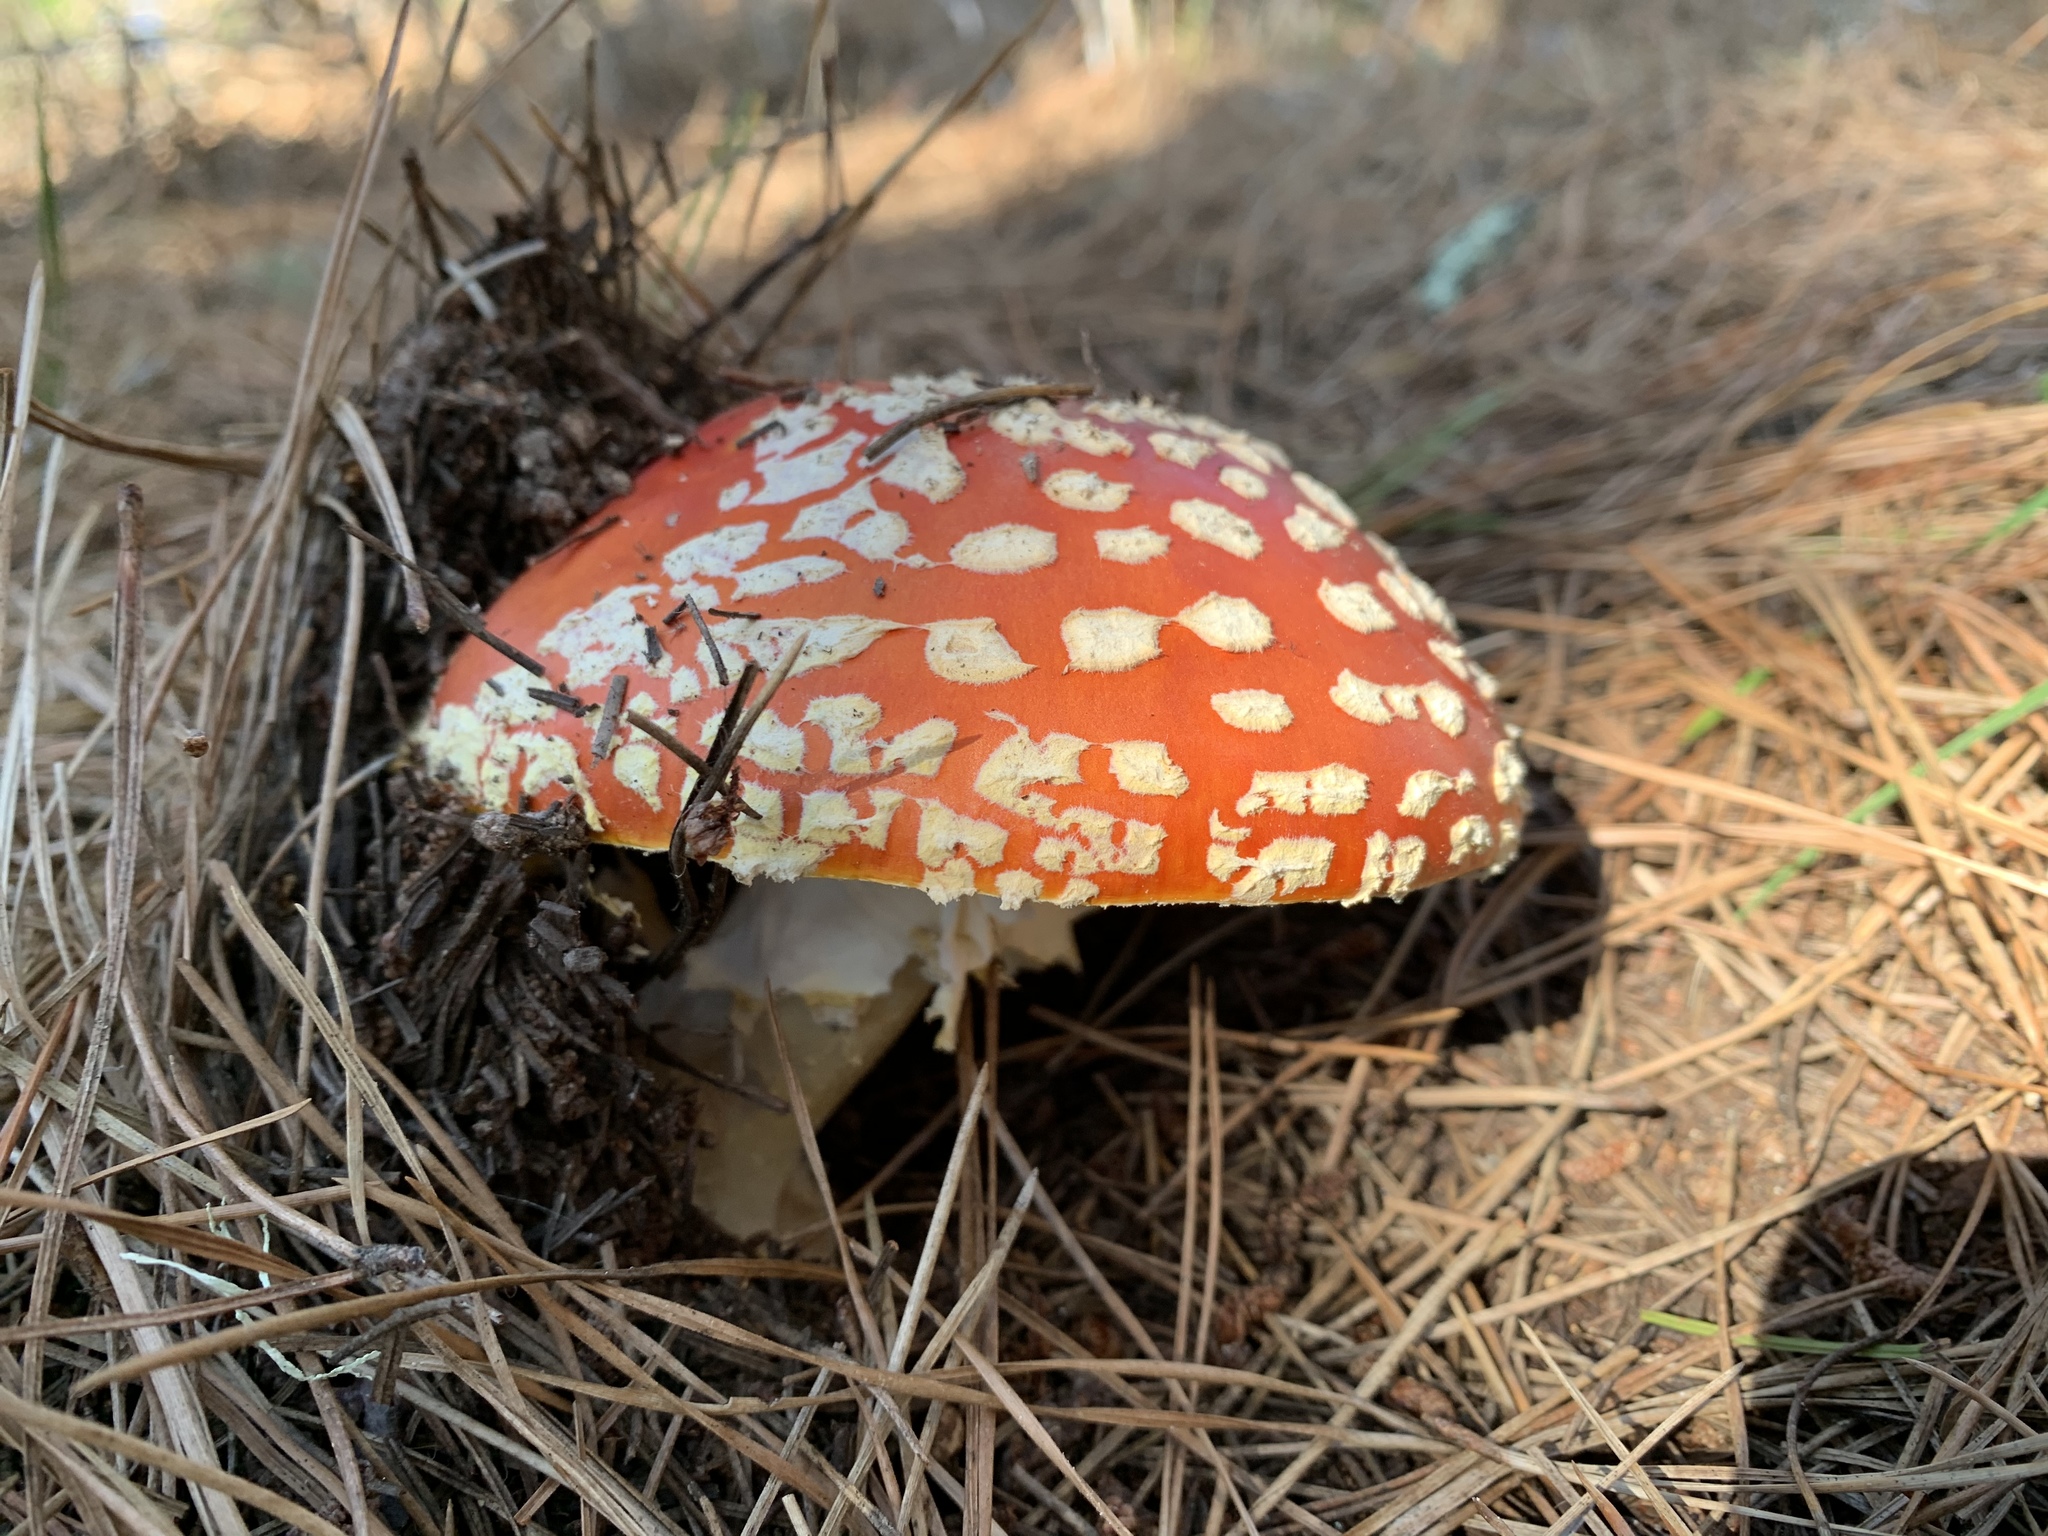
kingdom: Fungi
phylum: Basidiomycota
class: Agaricomycetes
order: Agaricales
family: Amanitaceae
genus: Amanita
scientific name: Amanita muscaria
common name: Fly agaric
